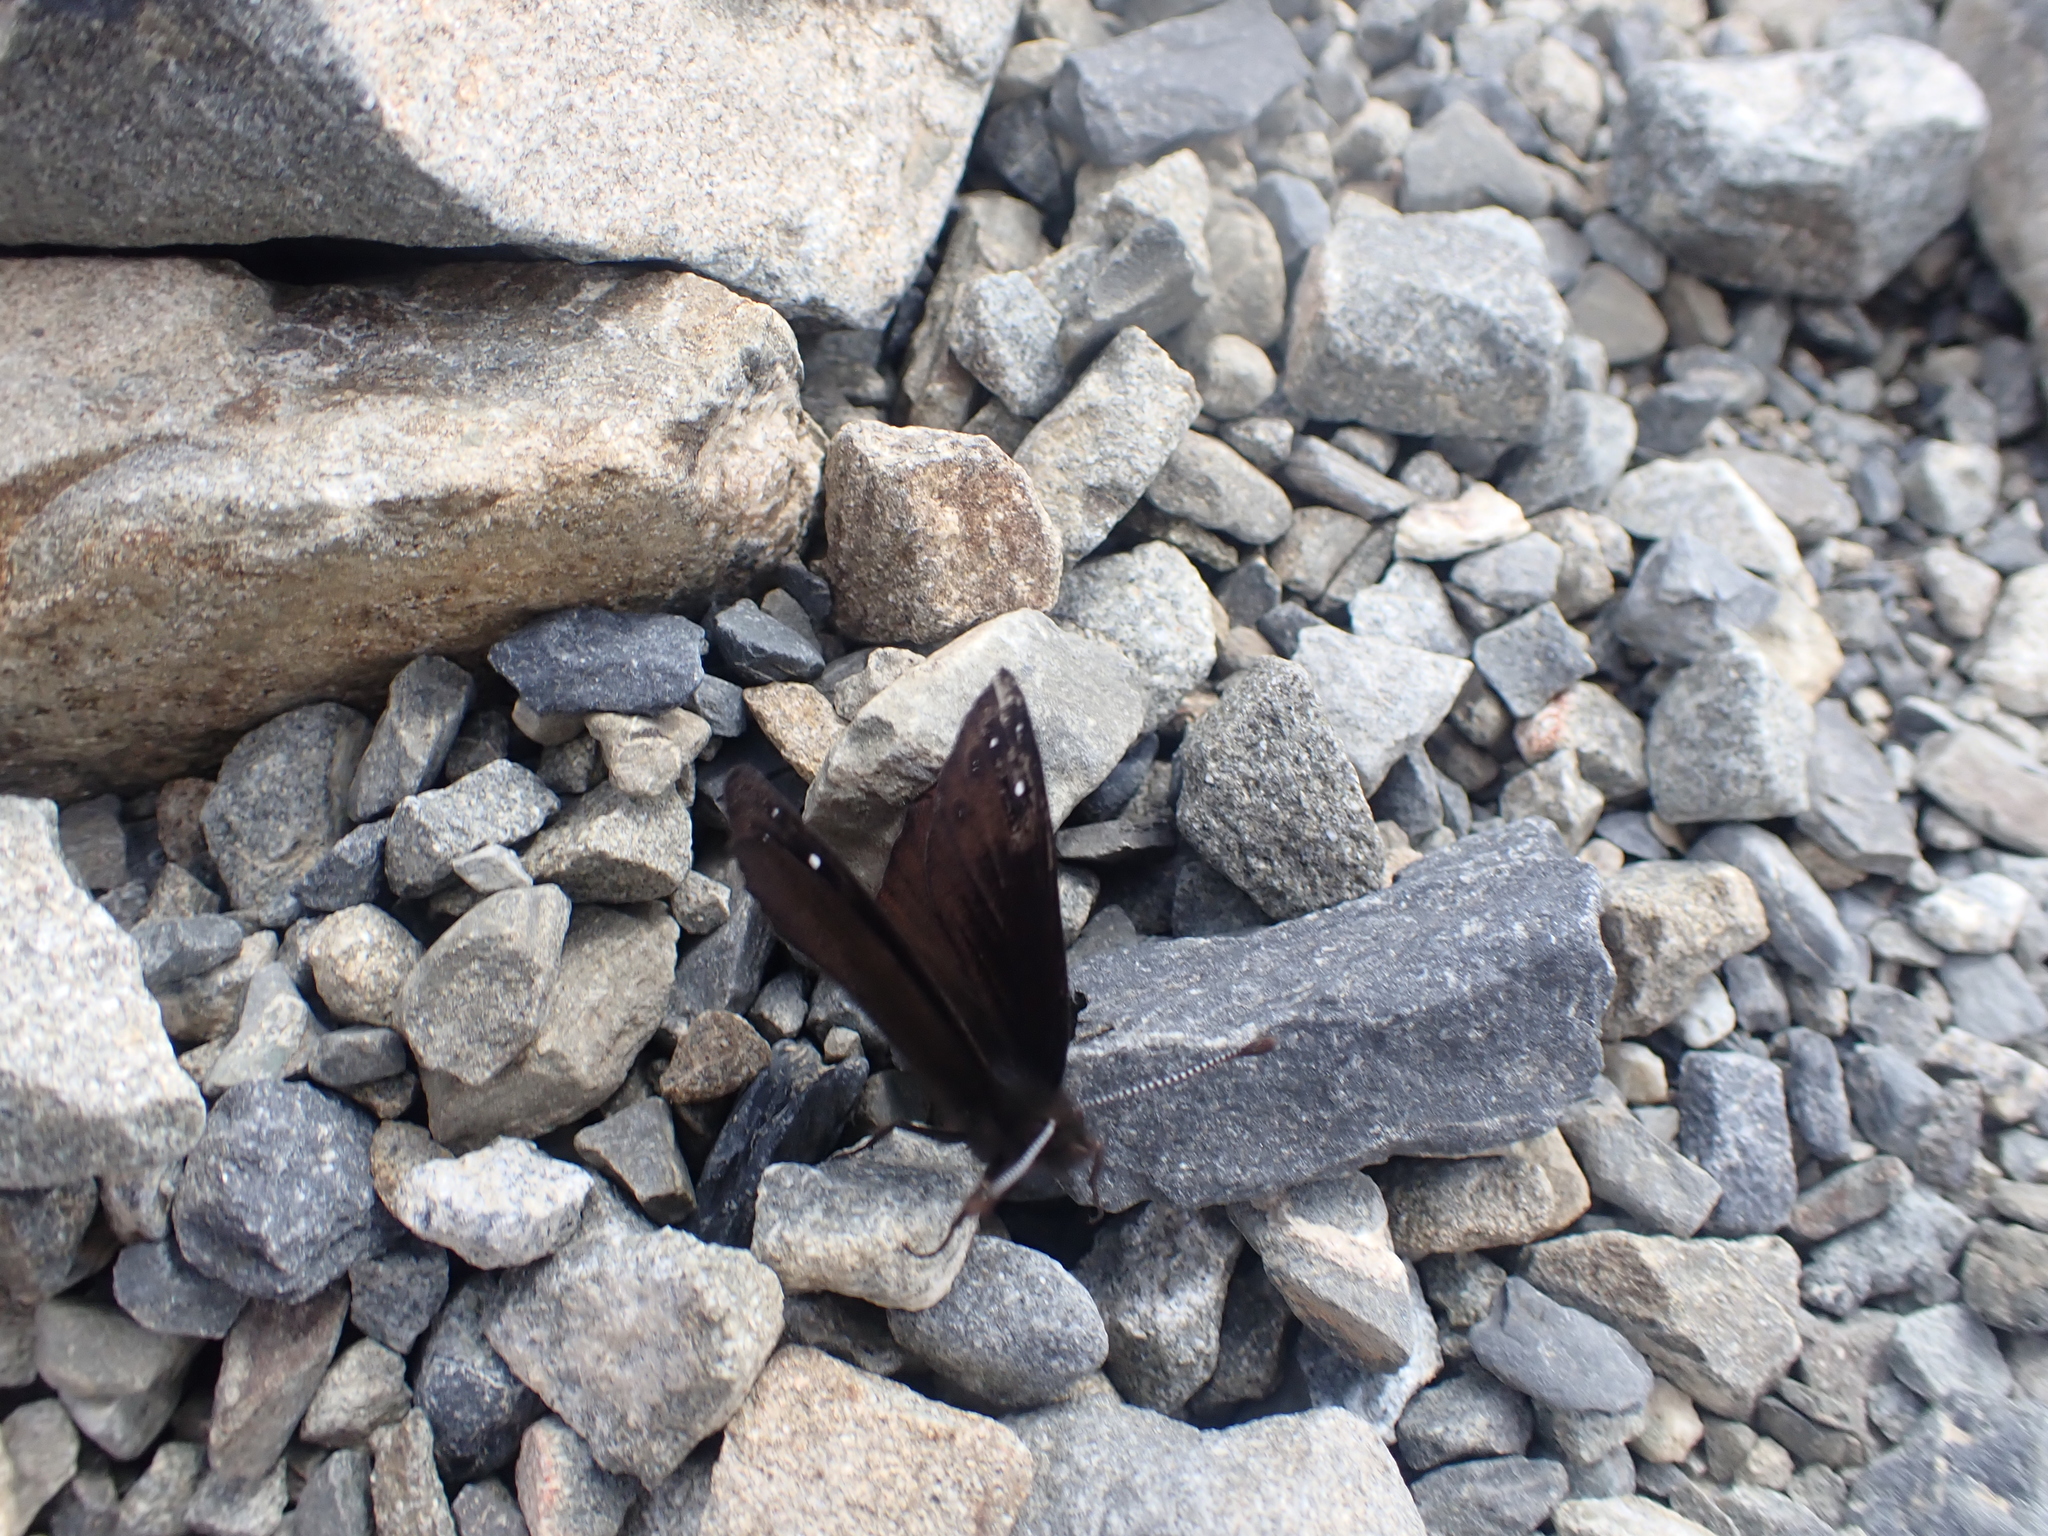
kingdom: Animalia
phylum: Arthropoda
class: Insecta
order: Lepidoptera
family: Nymphalidae
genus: Erebia
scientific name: Erebia Percnodaimon merula
